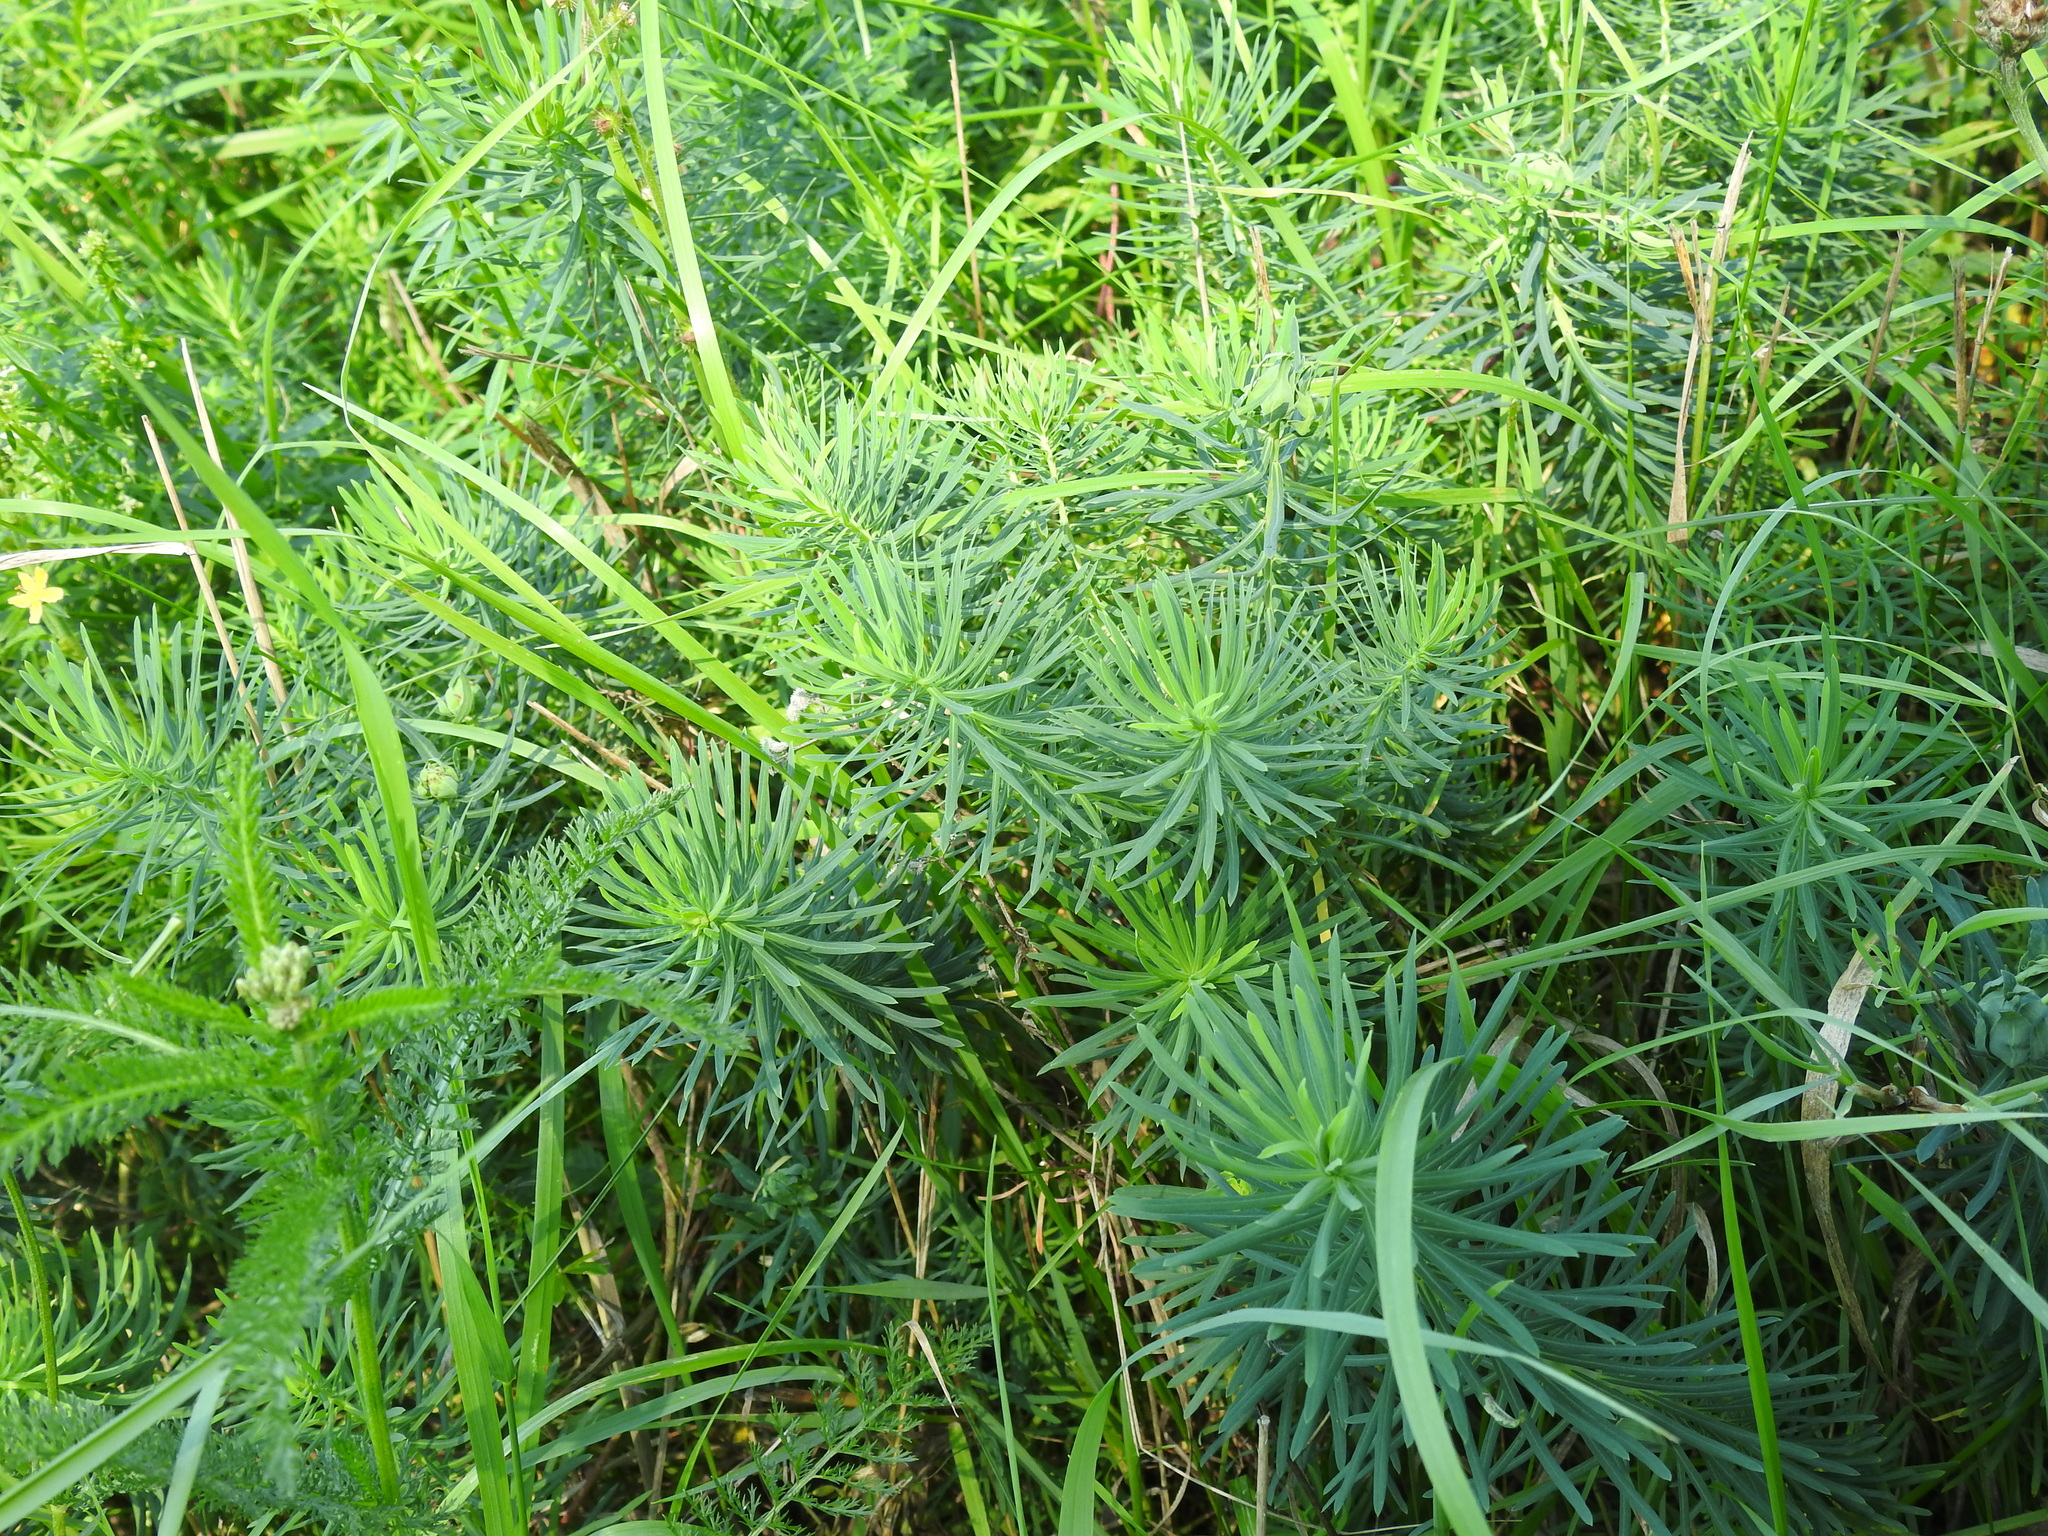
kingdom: Plantae
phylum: Tracheophyta
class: Magnoliopsida
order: Malpighiales
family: Euphorbiaceae
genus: Euphorbia
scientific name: Euphorbia cyparissias
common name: Cypress spurge
